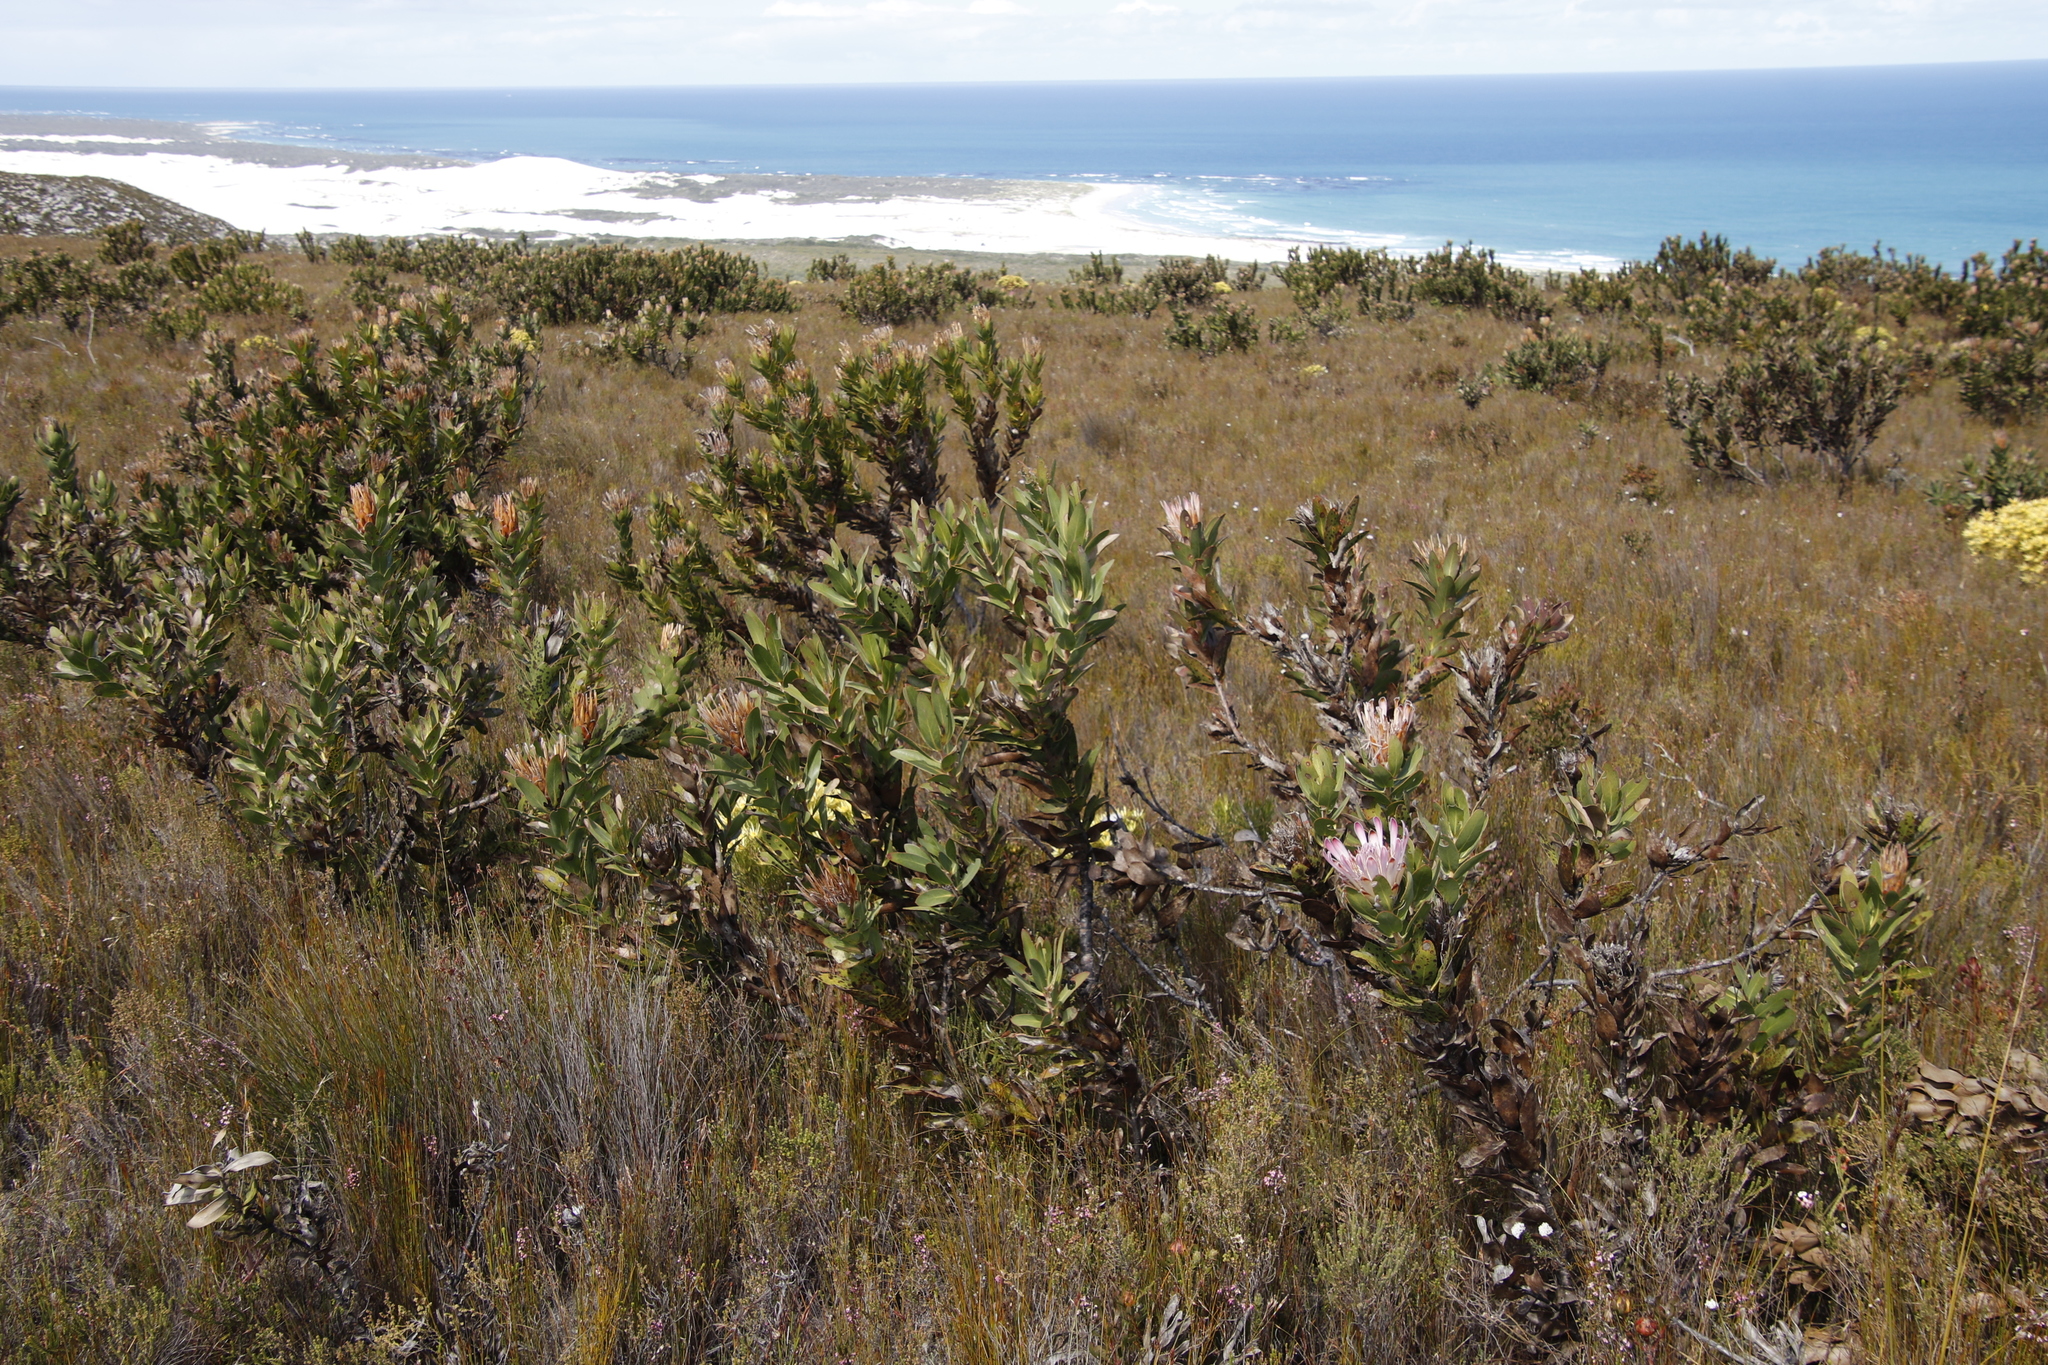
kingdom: Plantae
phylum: Tracheophyta
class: Magnoliopsida
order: Proteales
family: Proteaceae
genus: Protea
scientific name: Protea compacta
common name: Bot river protea
